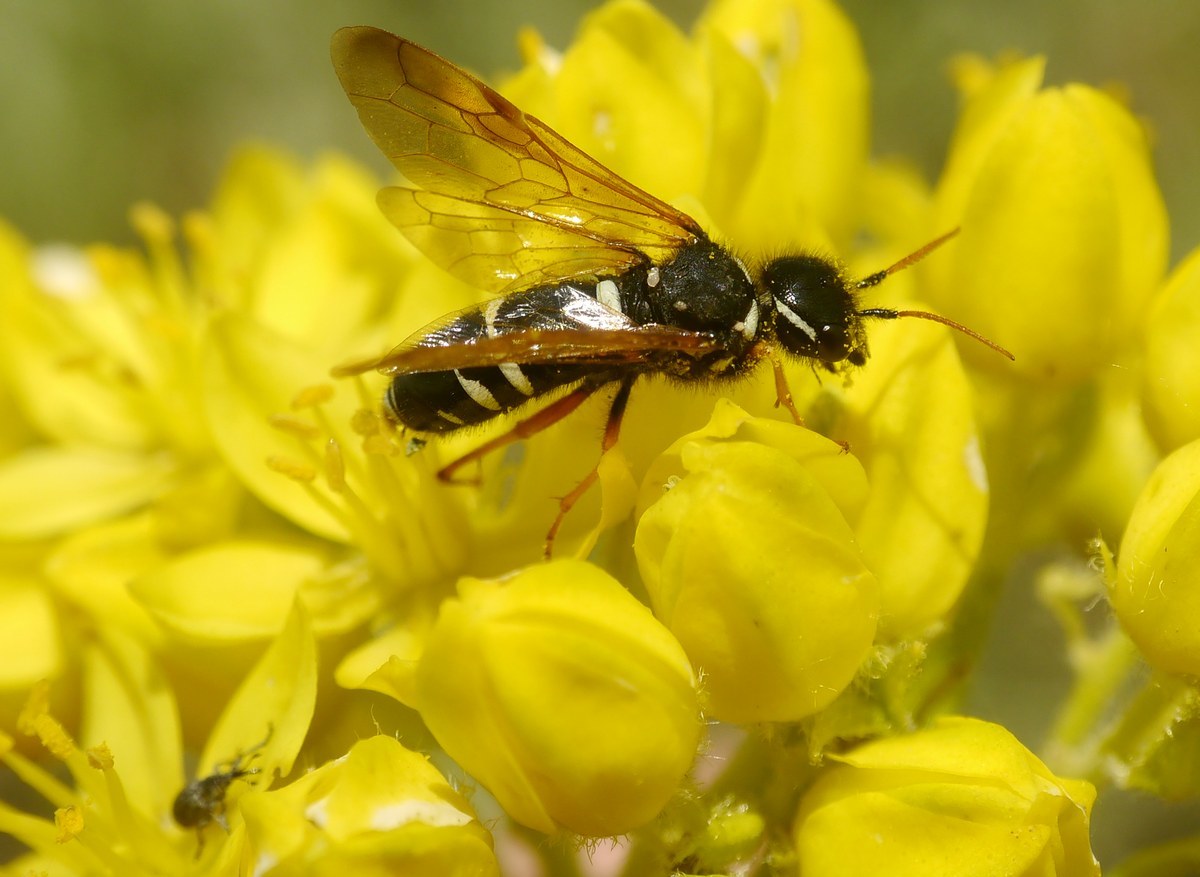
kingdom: Animalia
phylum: Arthropoda
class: Insecta
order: Hymenoptera
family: Megalodontesidae
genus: Megalodontes
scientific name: Megalodontes fabricii
